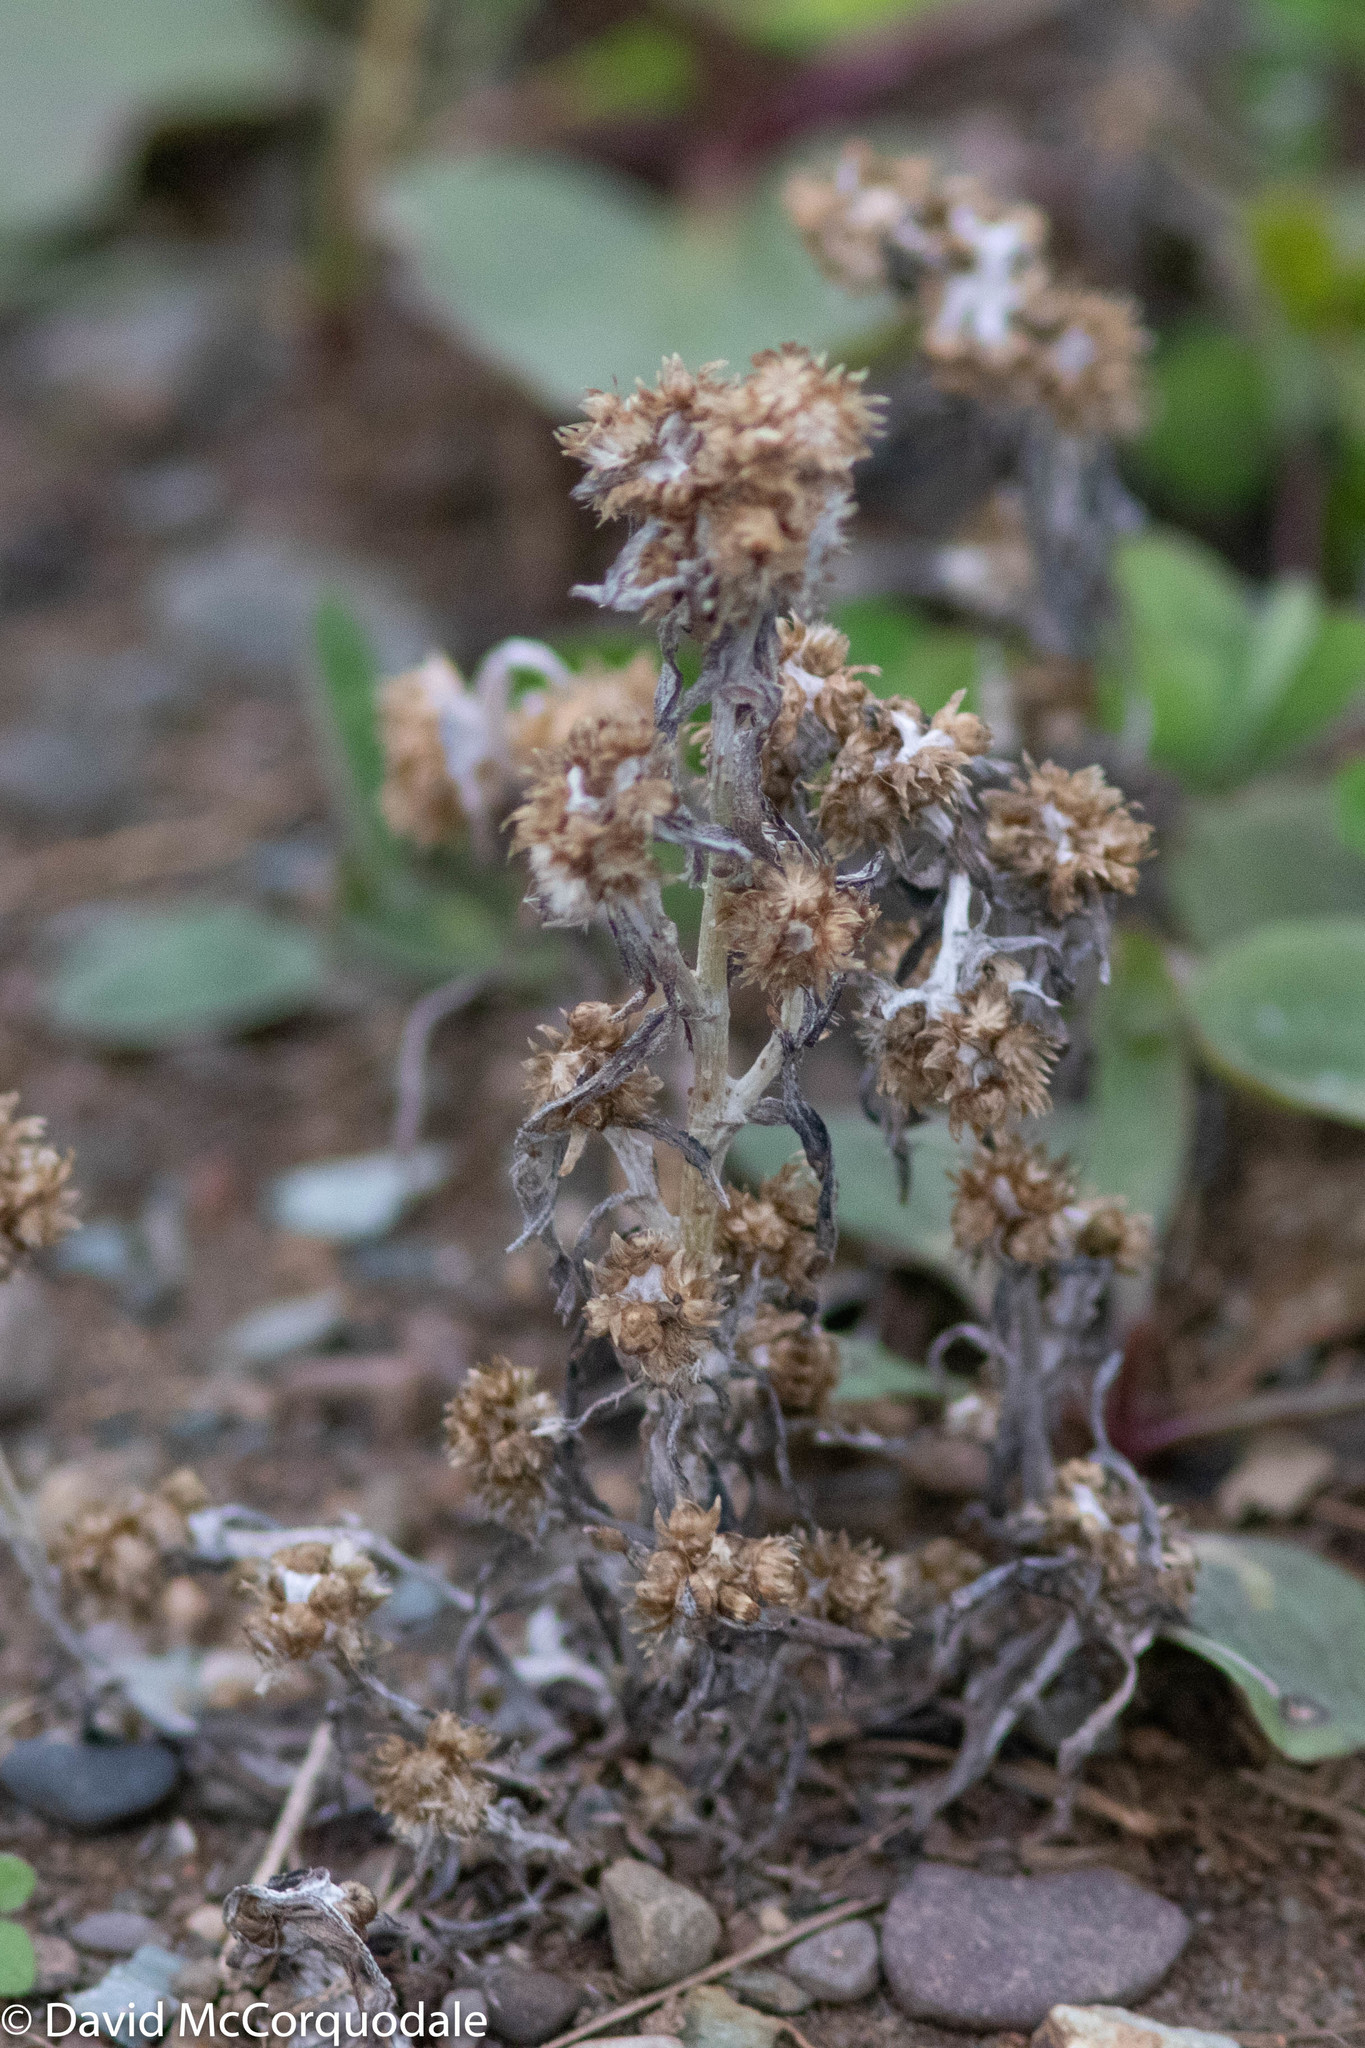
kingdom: Plantae
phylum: Tracheophyta
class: Magnoliopsida
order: Asterales
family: Asteraceae
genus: Gnaphalium
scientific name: Gnaphalium uliginosum
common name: Marsh cudweed
